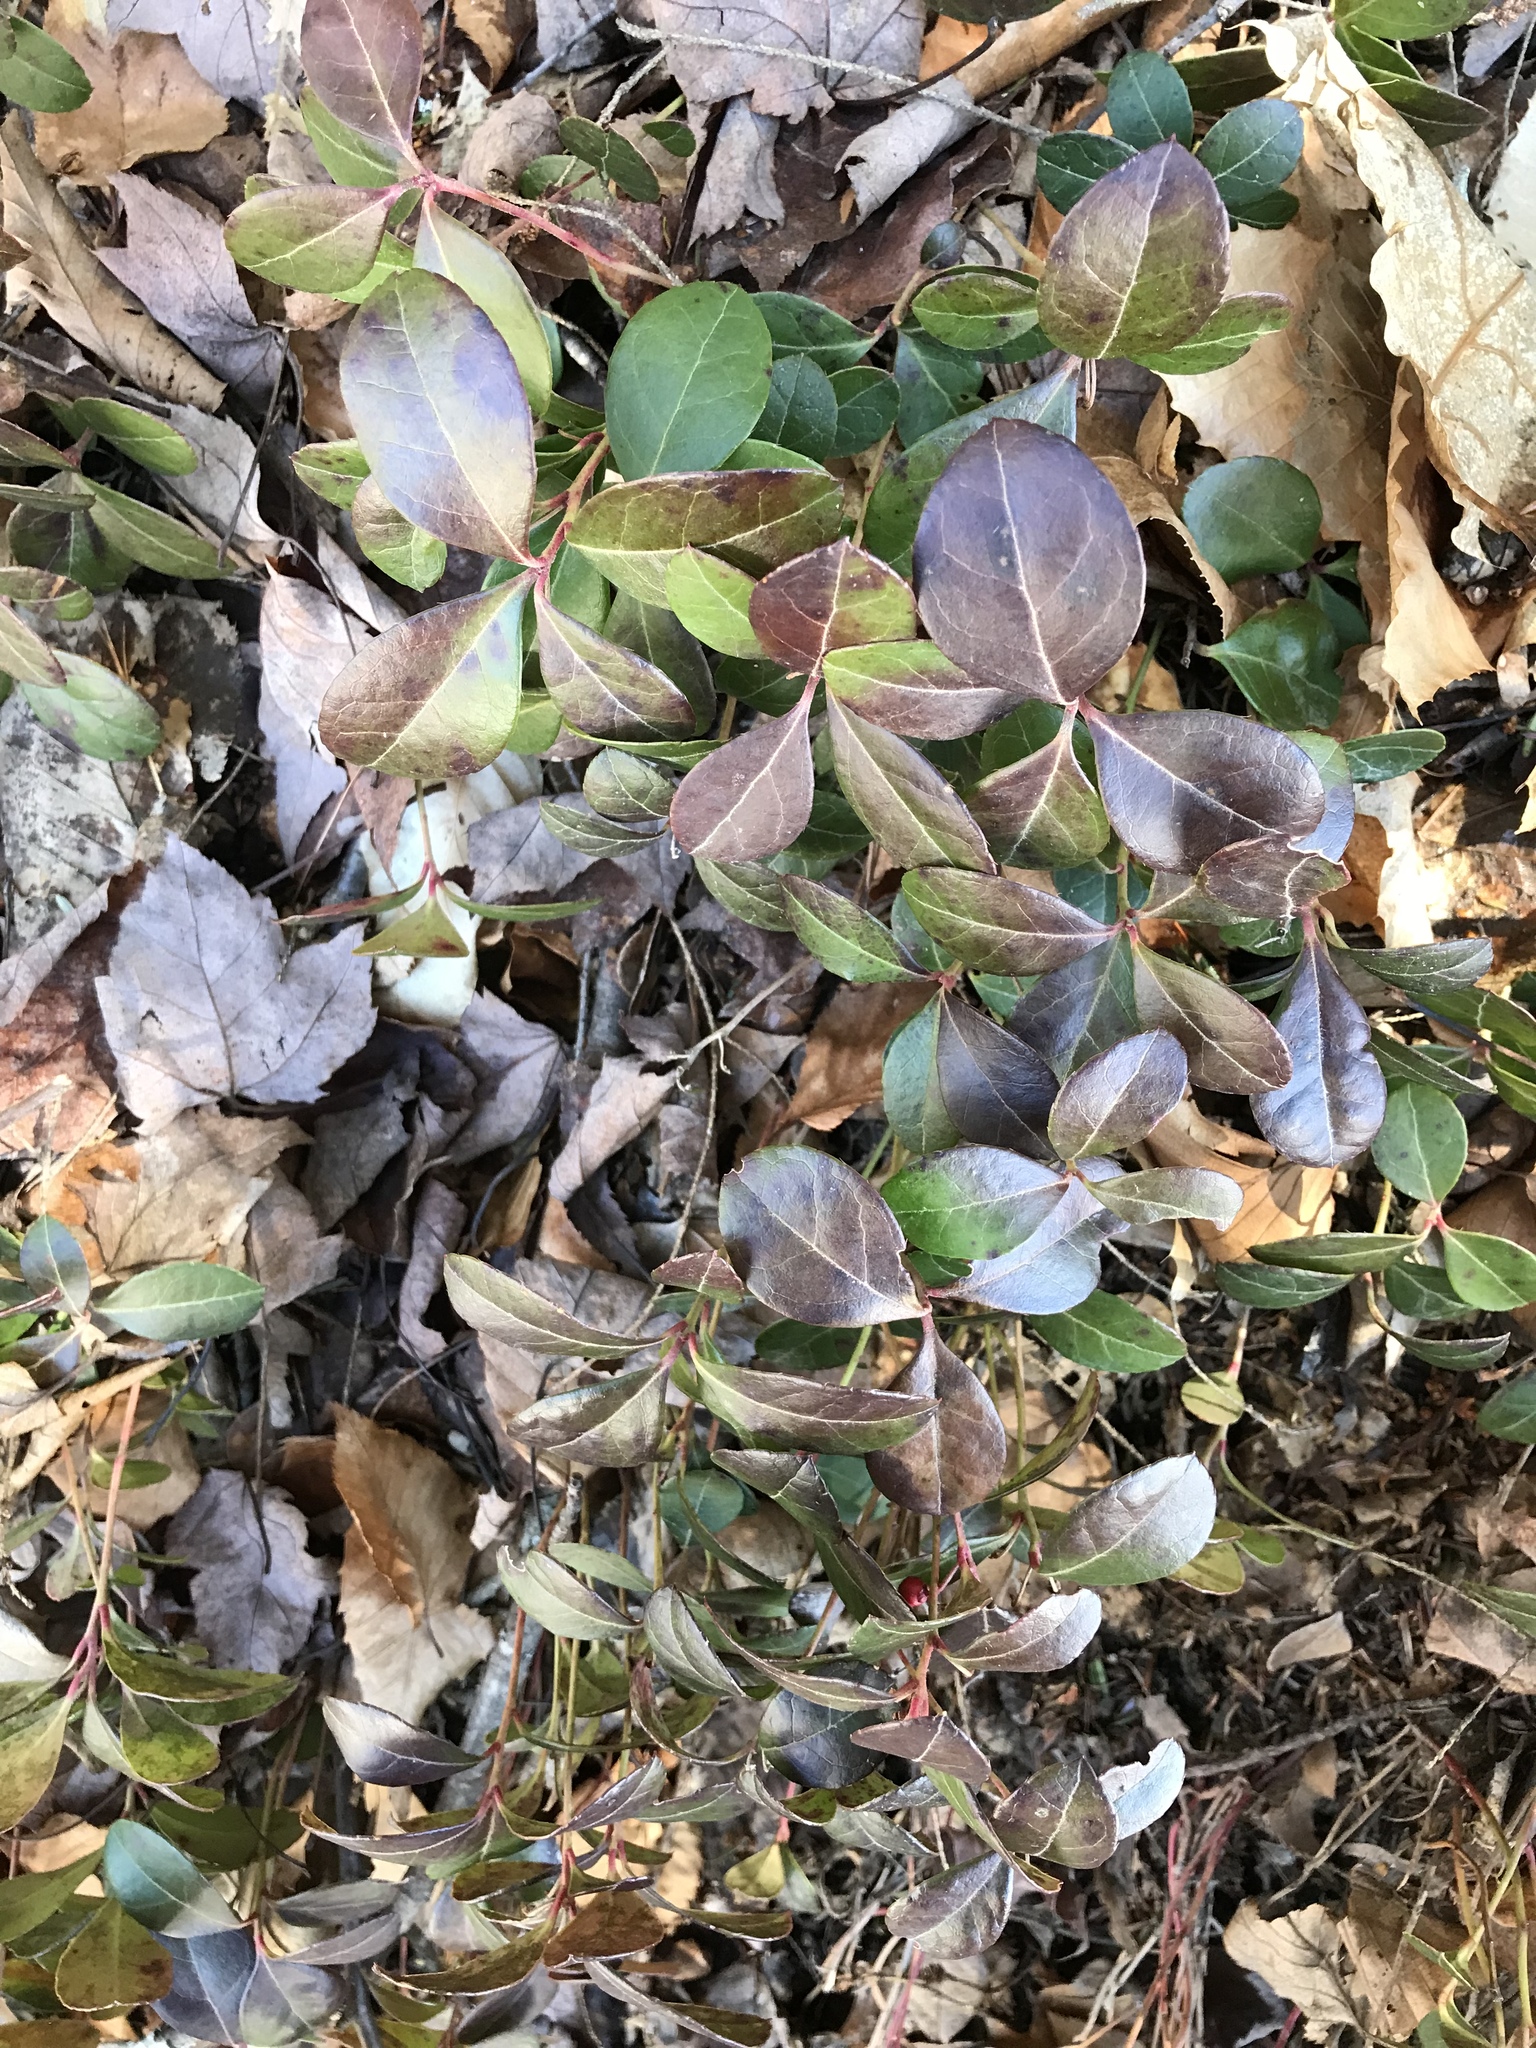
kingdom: Plantae
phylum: Tracheophyta
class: Magnoliopsida
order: Ericales
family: Ericaceae
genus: Gaultheria
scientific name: Gaultheria procumbens
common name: Checkerberry
